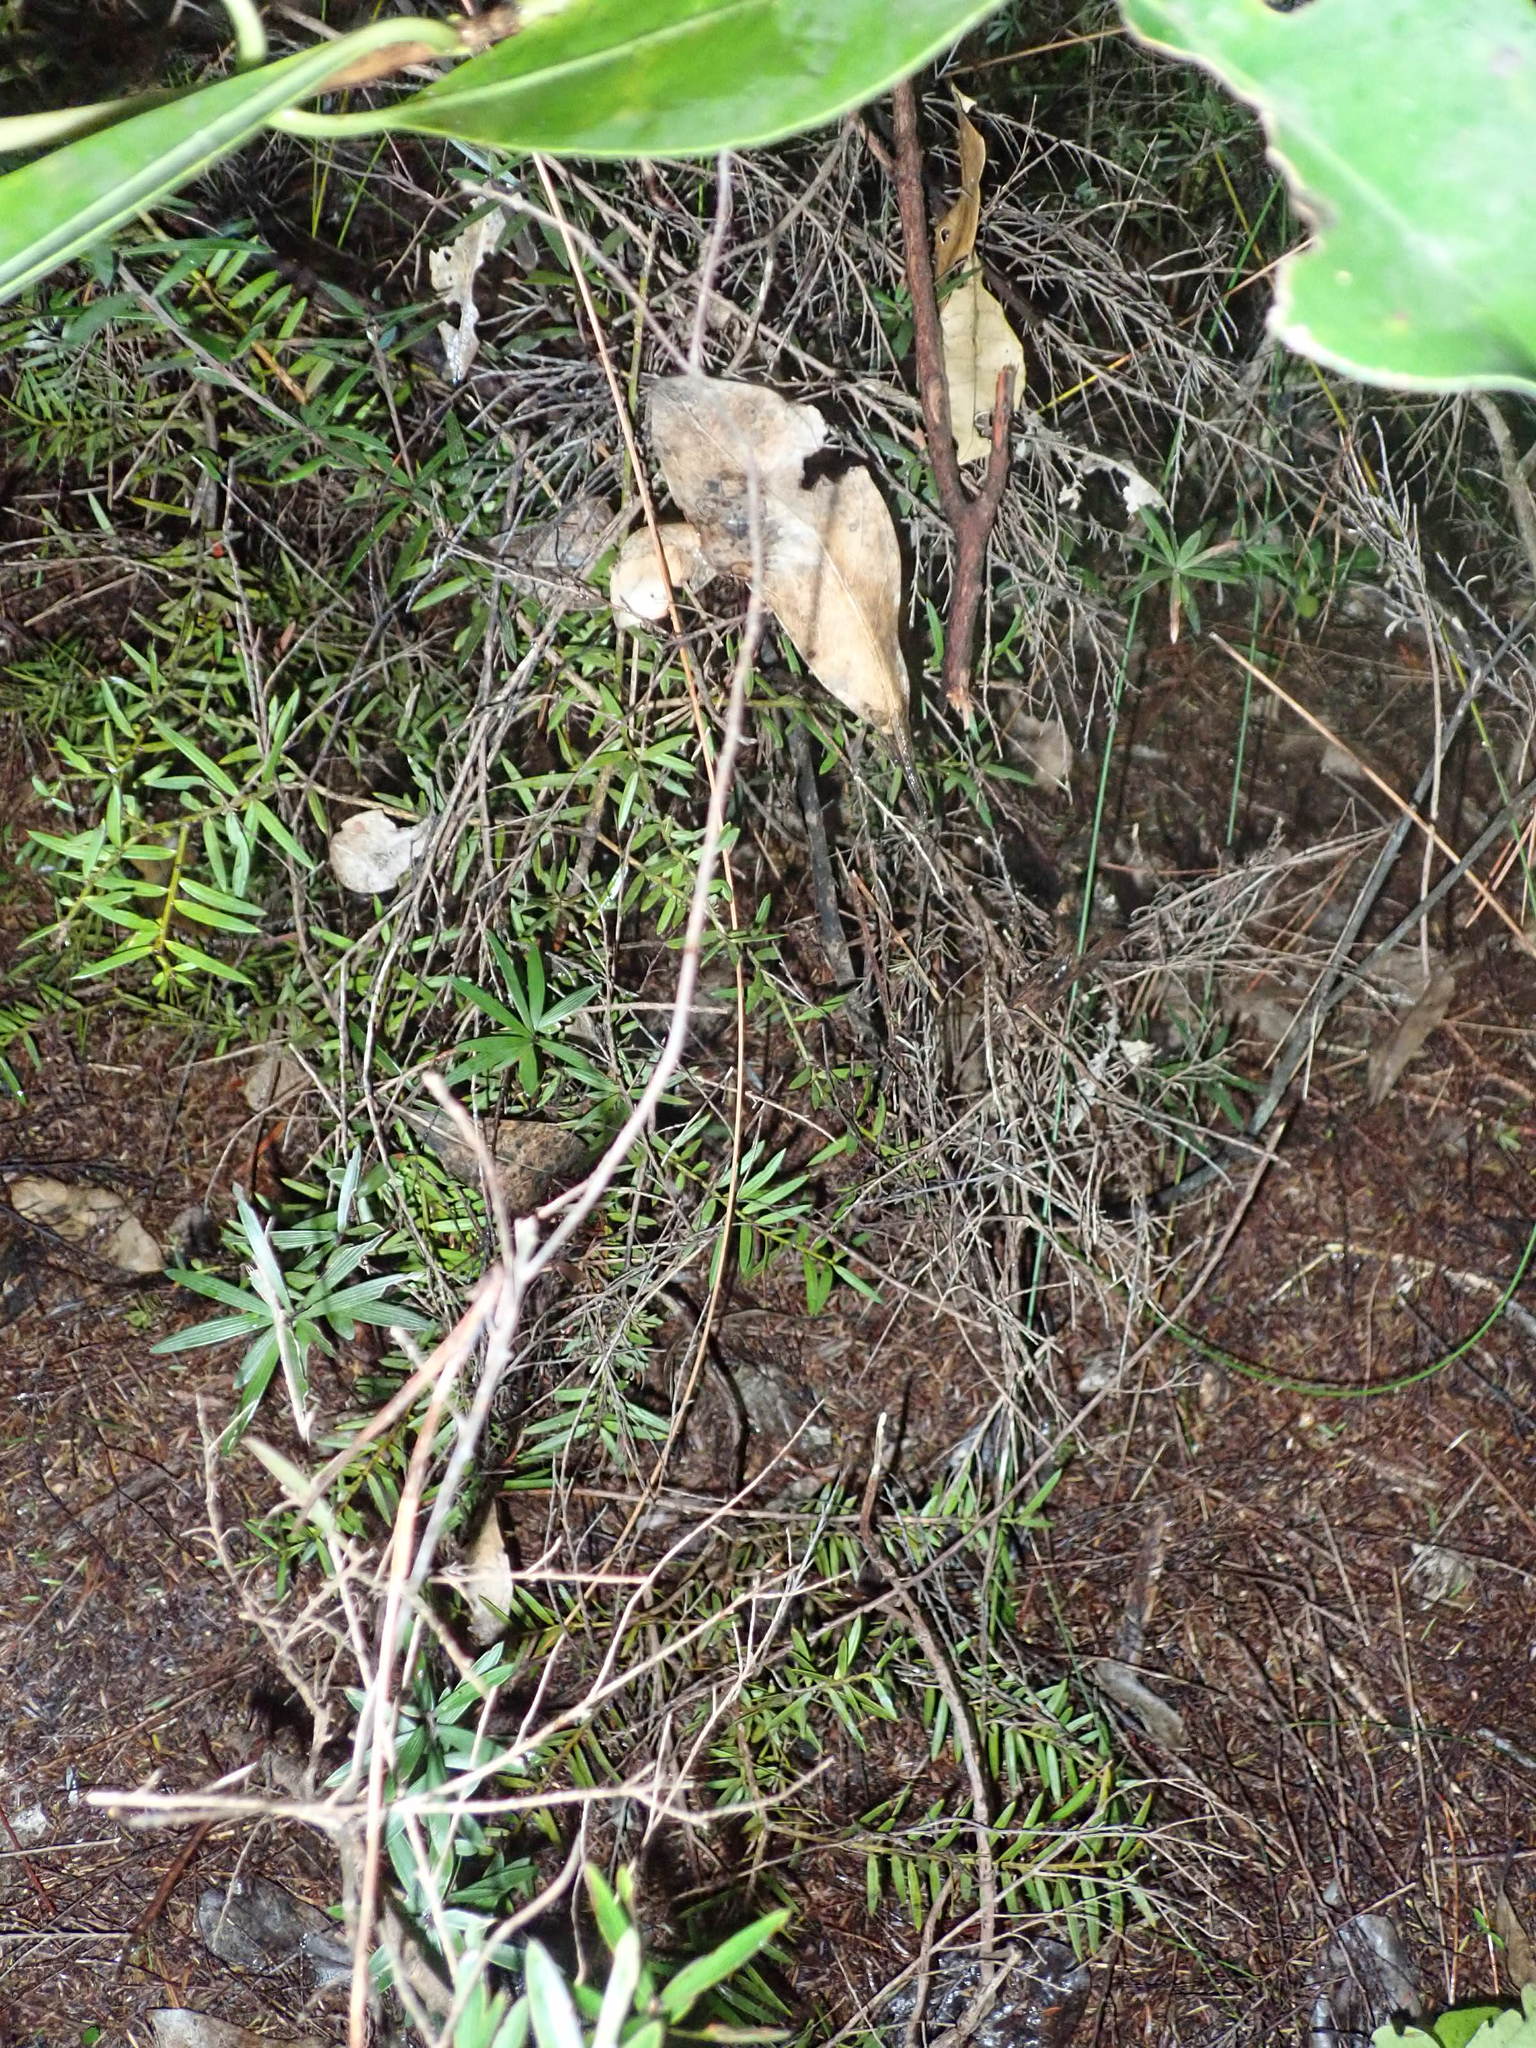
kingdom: Plantae
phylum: Tracheophyta
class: Pinopsida
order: Pinales
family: Podocarpaceae
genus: Podocarpus
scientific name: Podocarpus totara
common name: Totara
